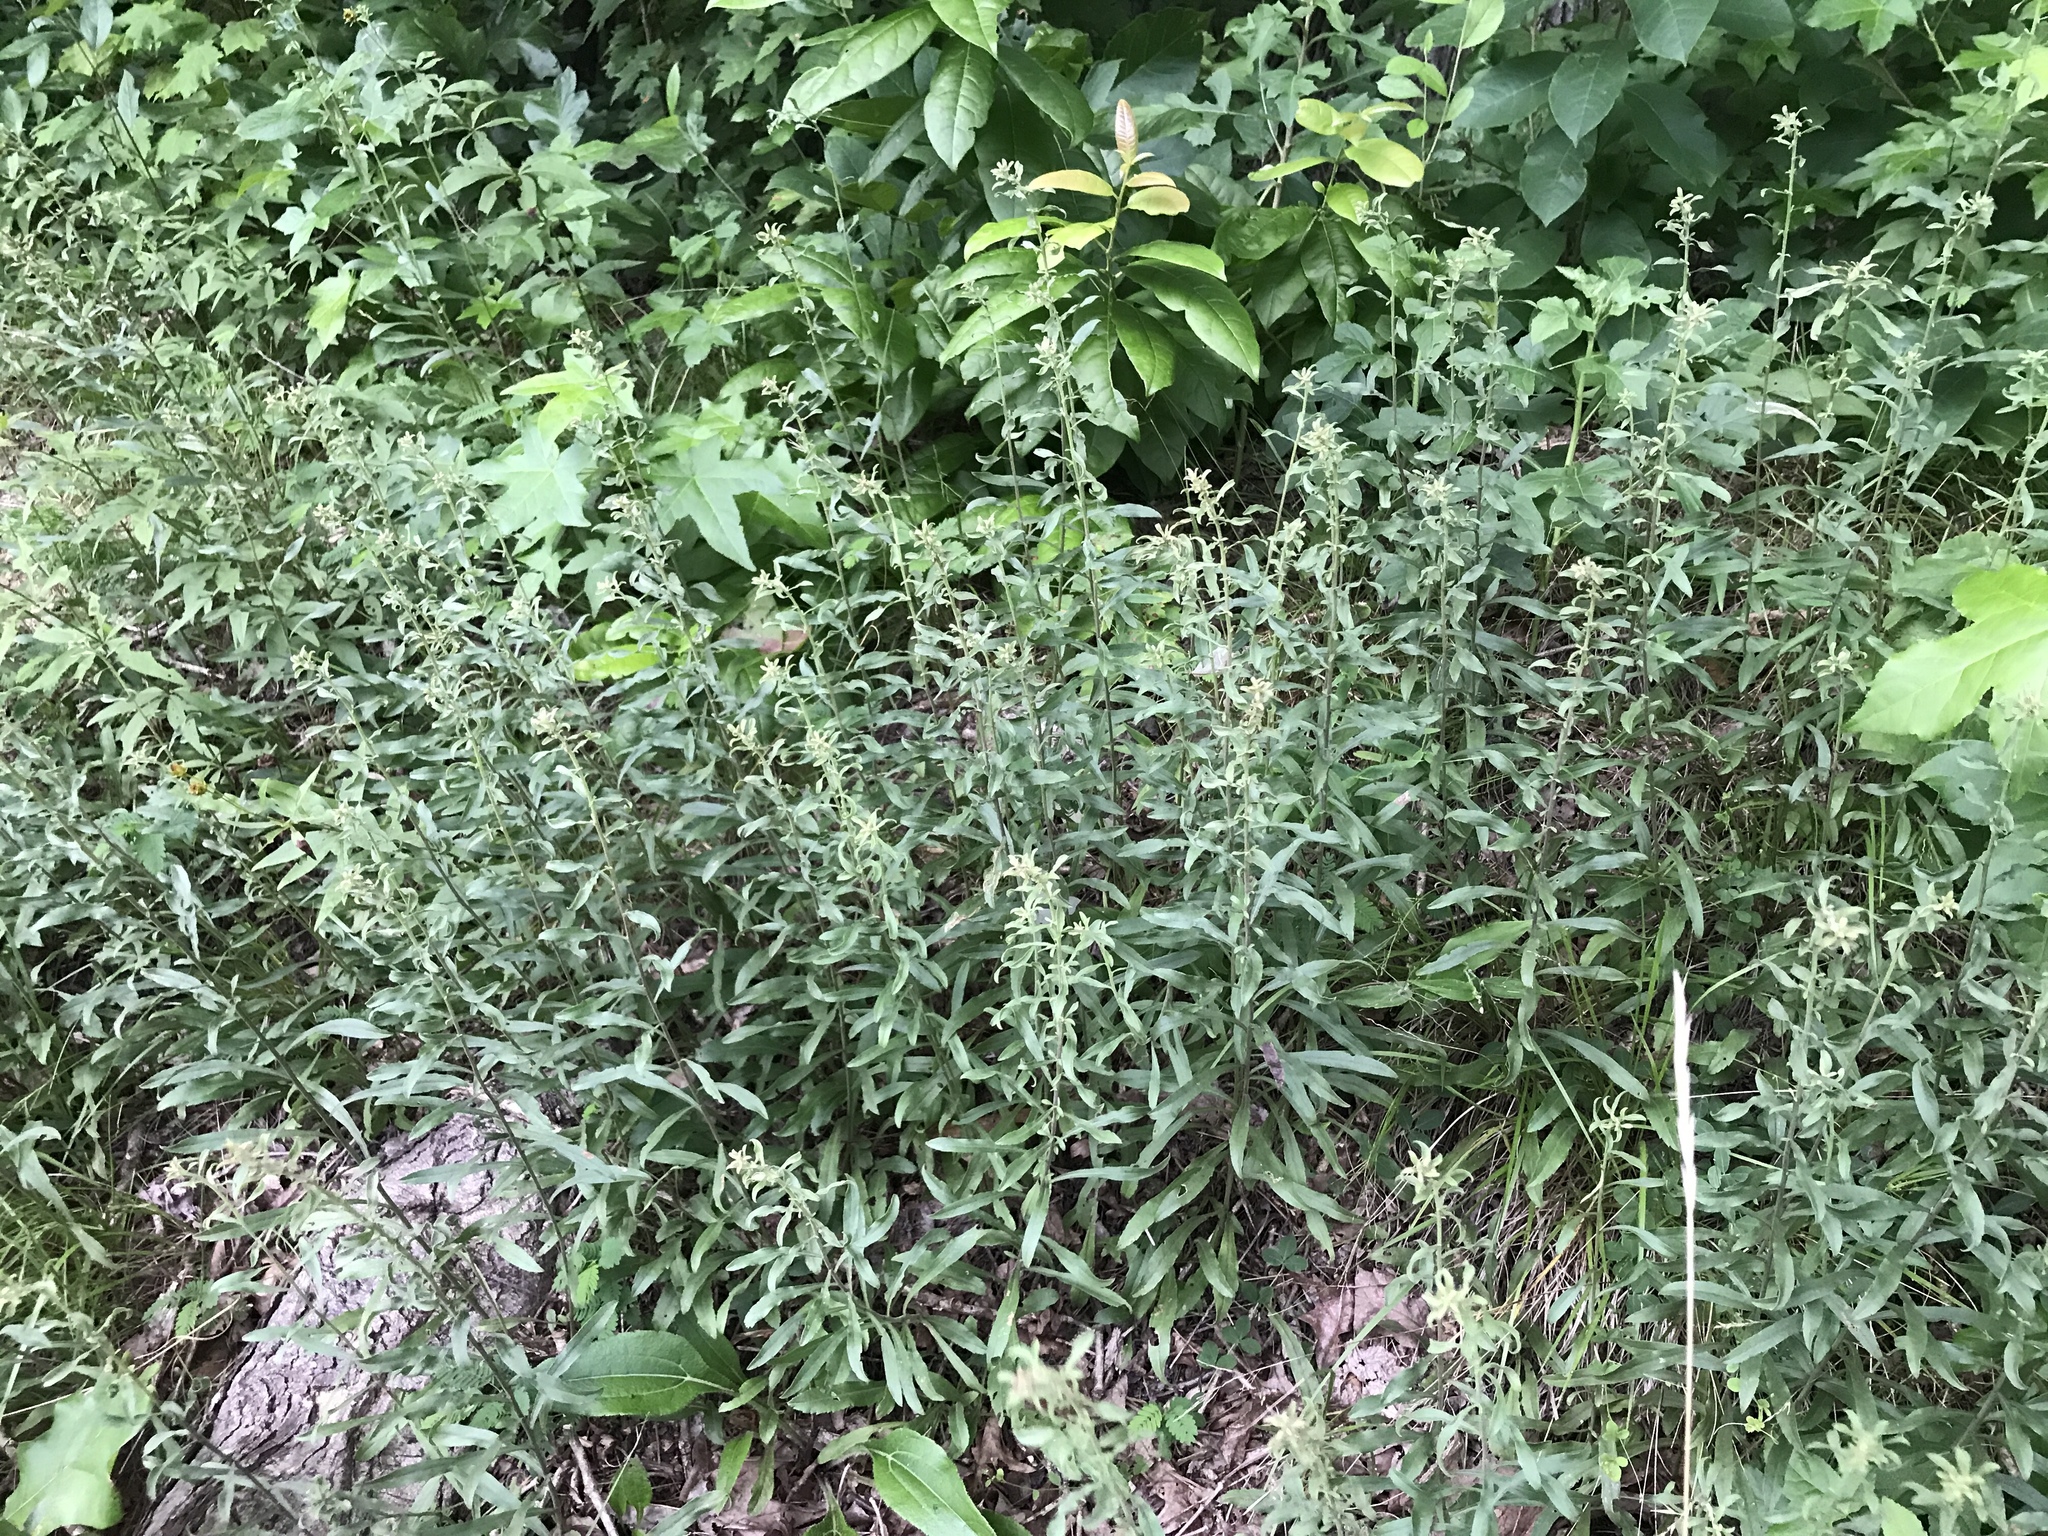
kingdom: Plantae
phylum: Tracheophyta
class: Magnoliopsida
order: Asterales
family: Asteraceae
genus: Solidago
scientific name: Solidago nemoralis
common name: Grey goldenrod
